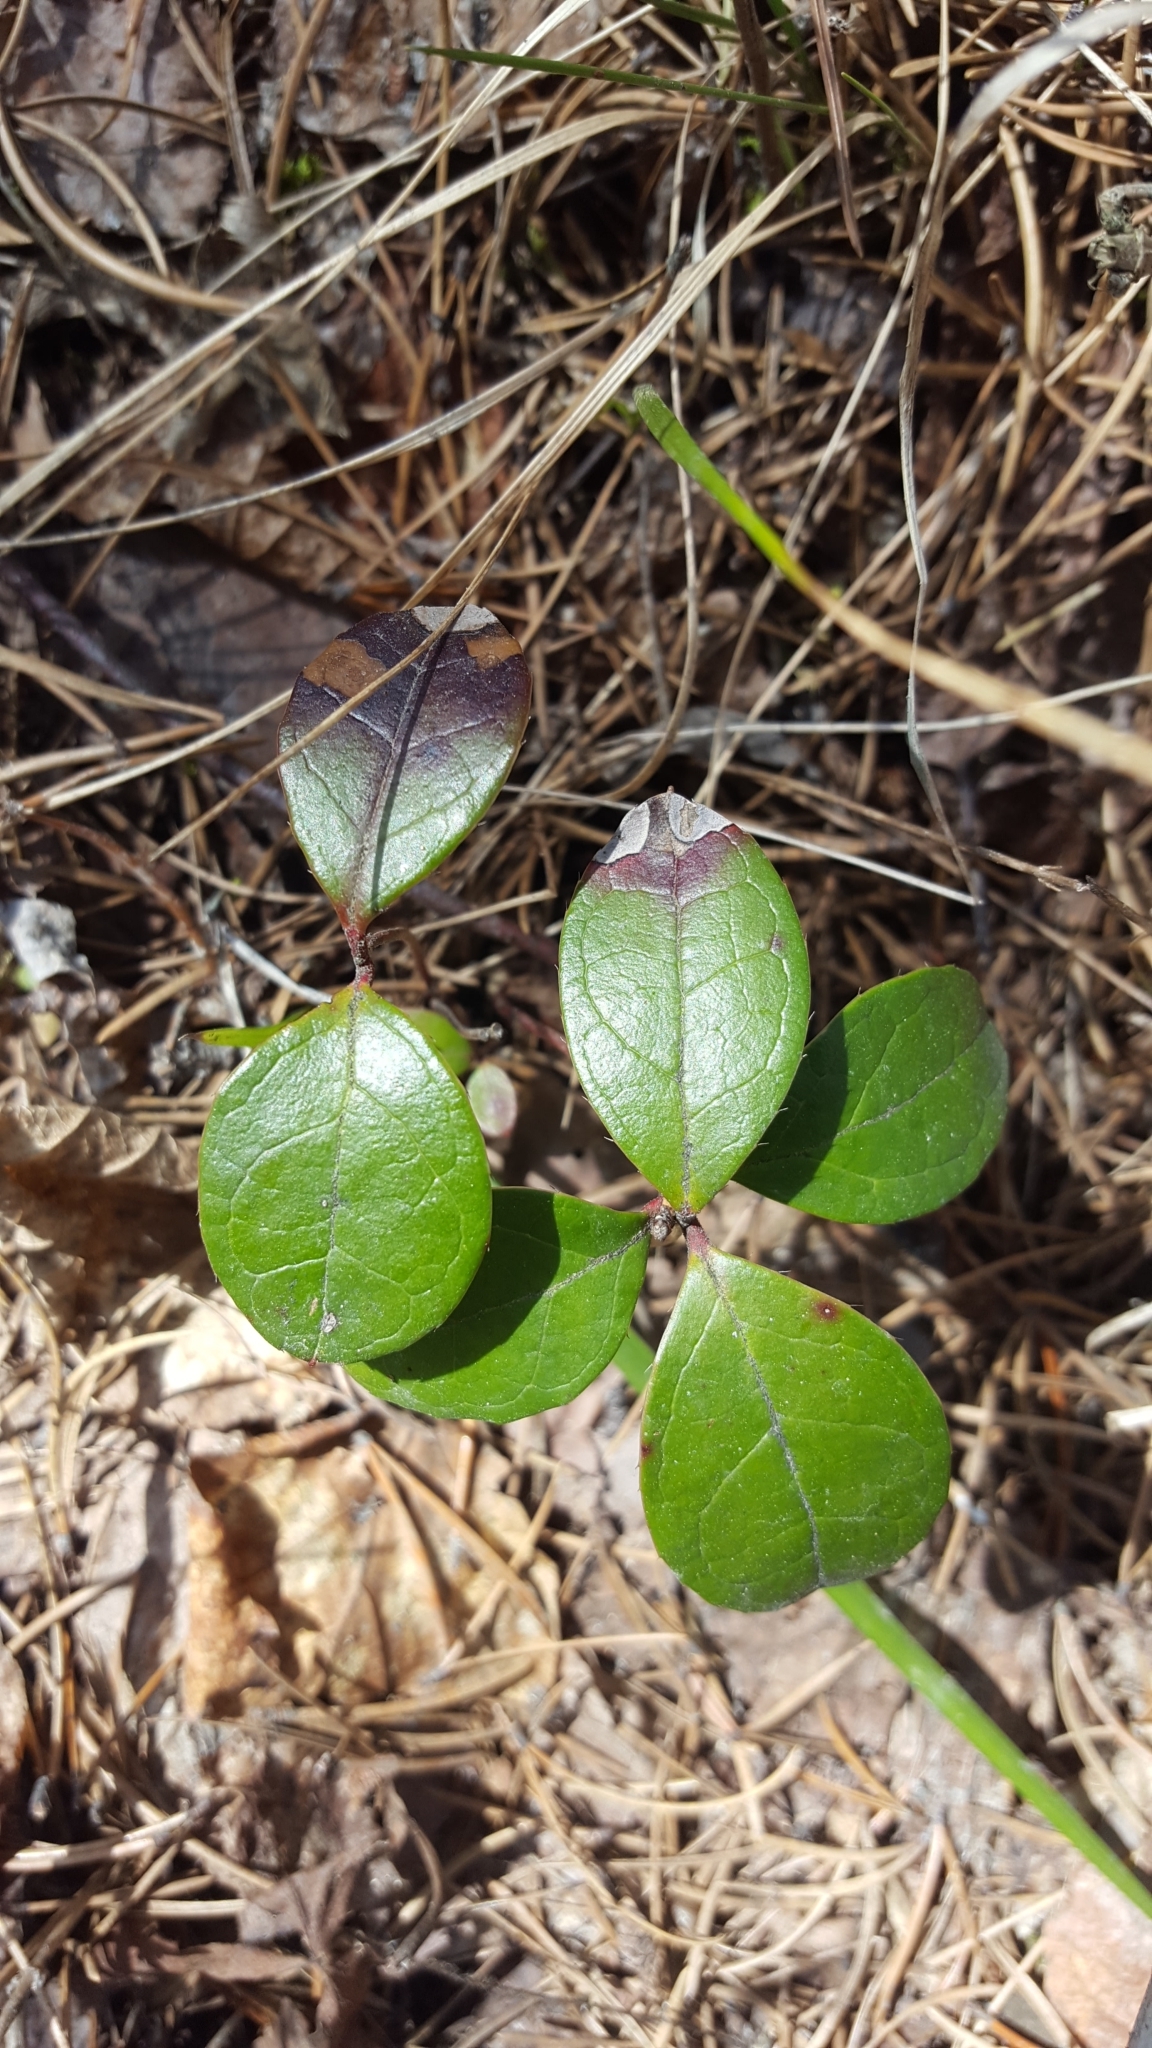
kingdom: Plantae
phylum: Tracheophyta
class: Magnoliopsida
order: Ericales
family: Ericaceae
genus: Gaultheria
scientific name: Gaultheria procumbens
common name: Checkerberry
